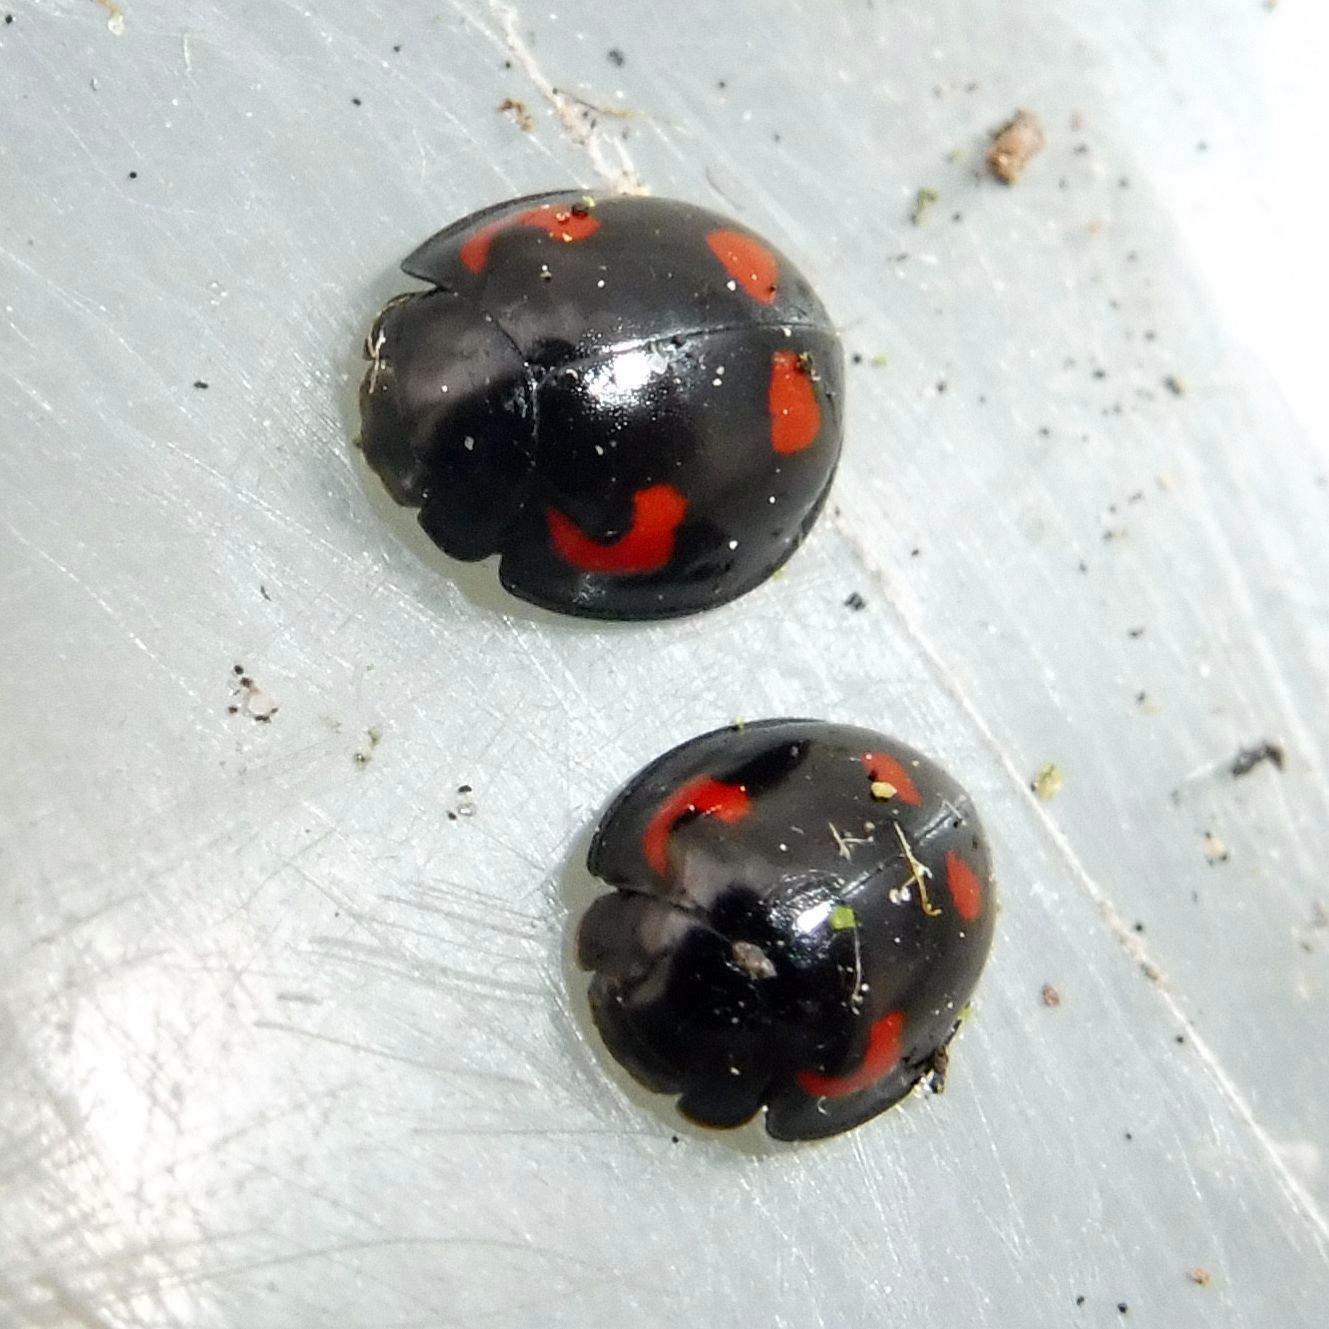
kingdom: Animalia
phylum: Arthropoda
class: Insecta
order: Coleoptera
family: Coccinellidae
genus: Brumus
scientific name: Brumus quadripustulatus
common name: Ladybird beetle
